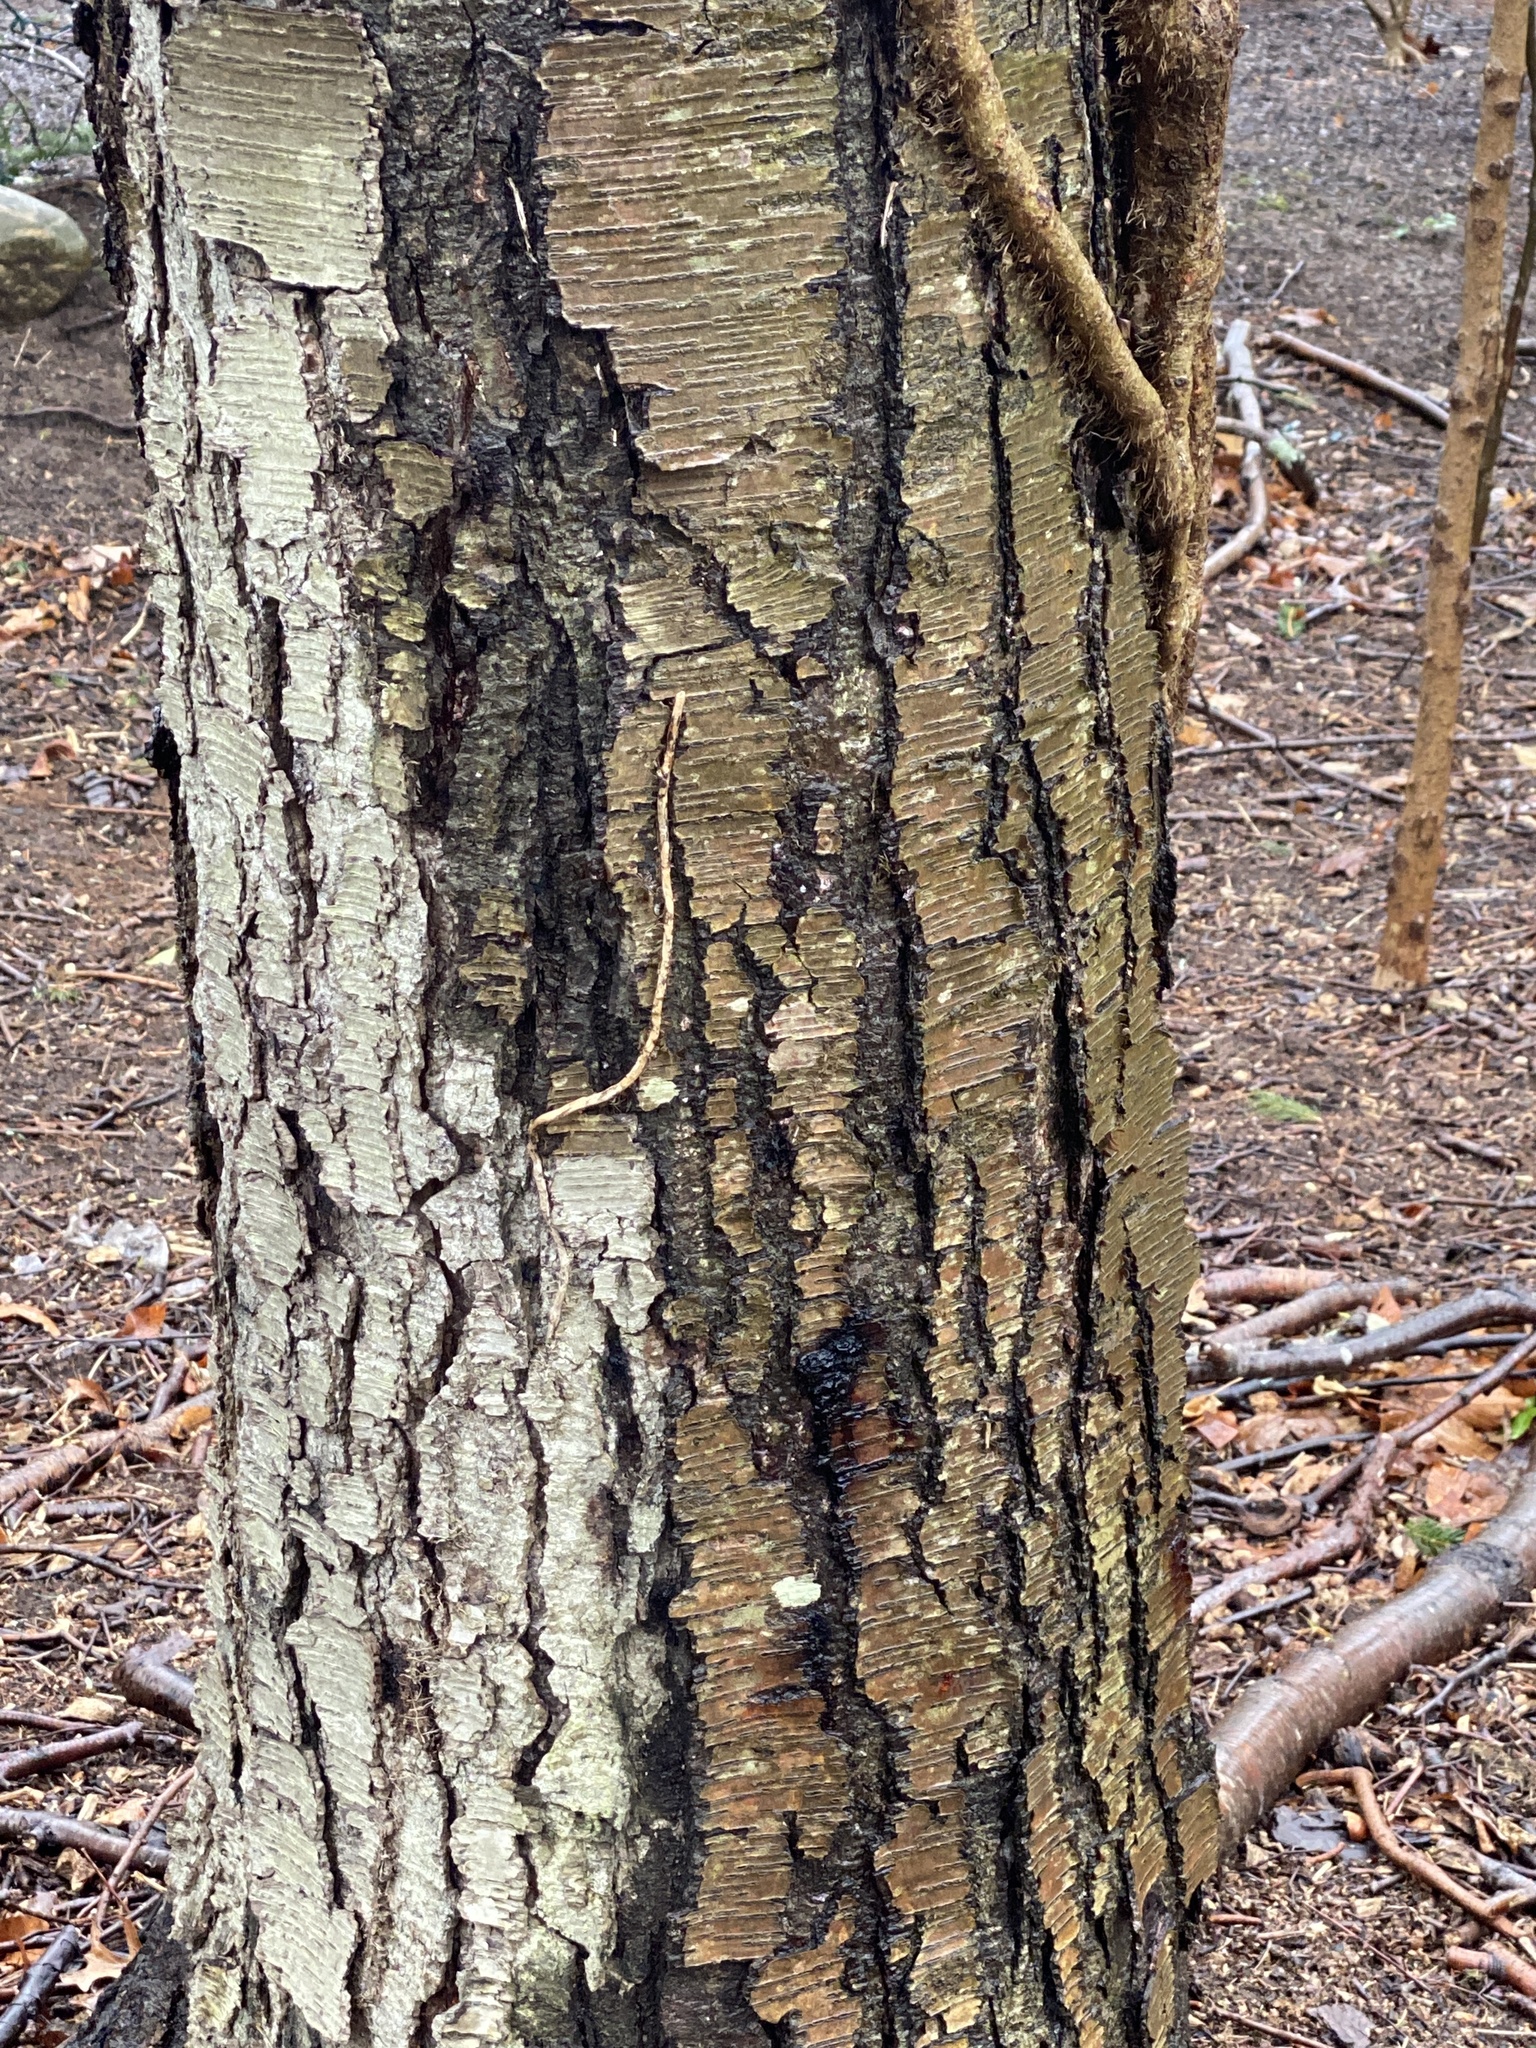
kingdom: Plantae
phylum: Tracheophyta
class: Magnoliopsida
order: Fagales
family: Betulaceae
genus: Betula
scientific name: Betula lenta
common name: Black birch
